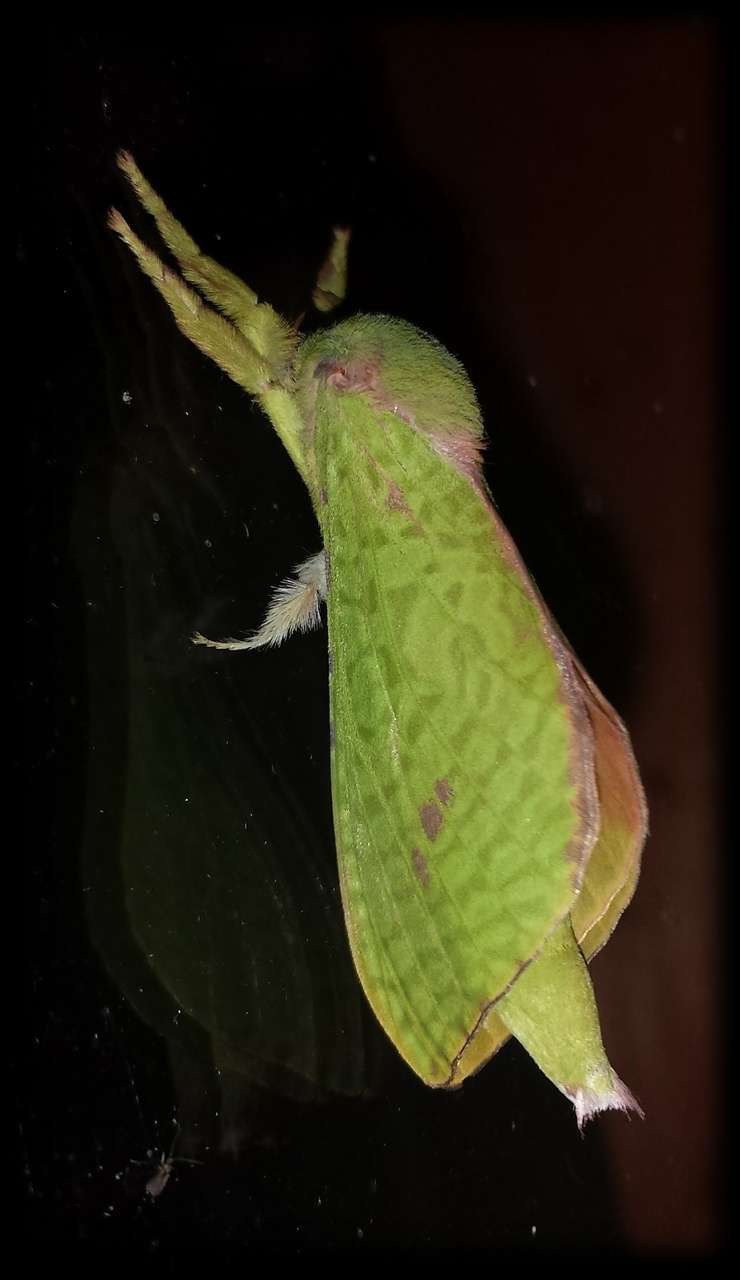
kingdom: Animalia
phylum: Arthropoda
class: Insecta
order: Lepidoptera
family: Hepialidae
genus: Aenetus
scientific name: Aenetus eximia
